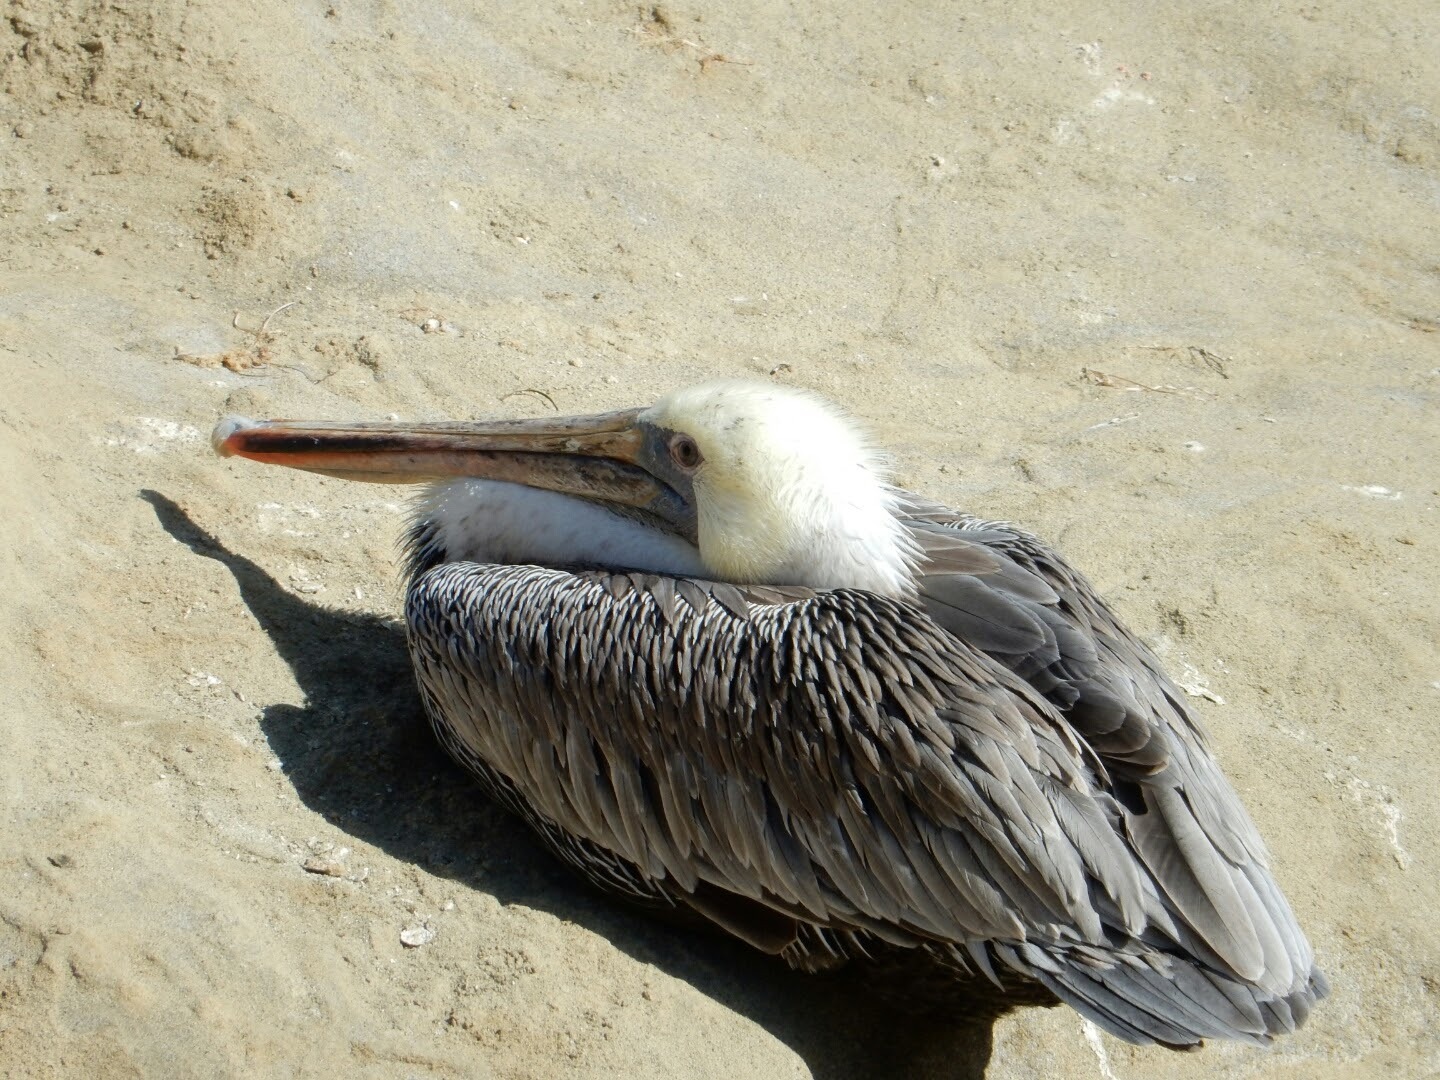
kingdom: Animalia
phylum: Chordata
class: Aves
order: Pelecaniformes
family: Pelecanidae
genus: Pelecanus
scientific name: Pelecanus occidentalis
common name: Brown pelican
